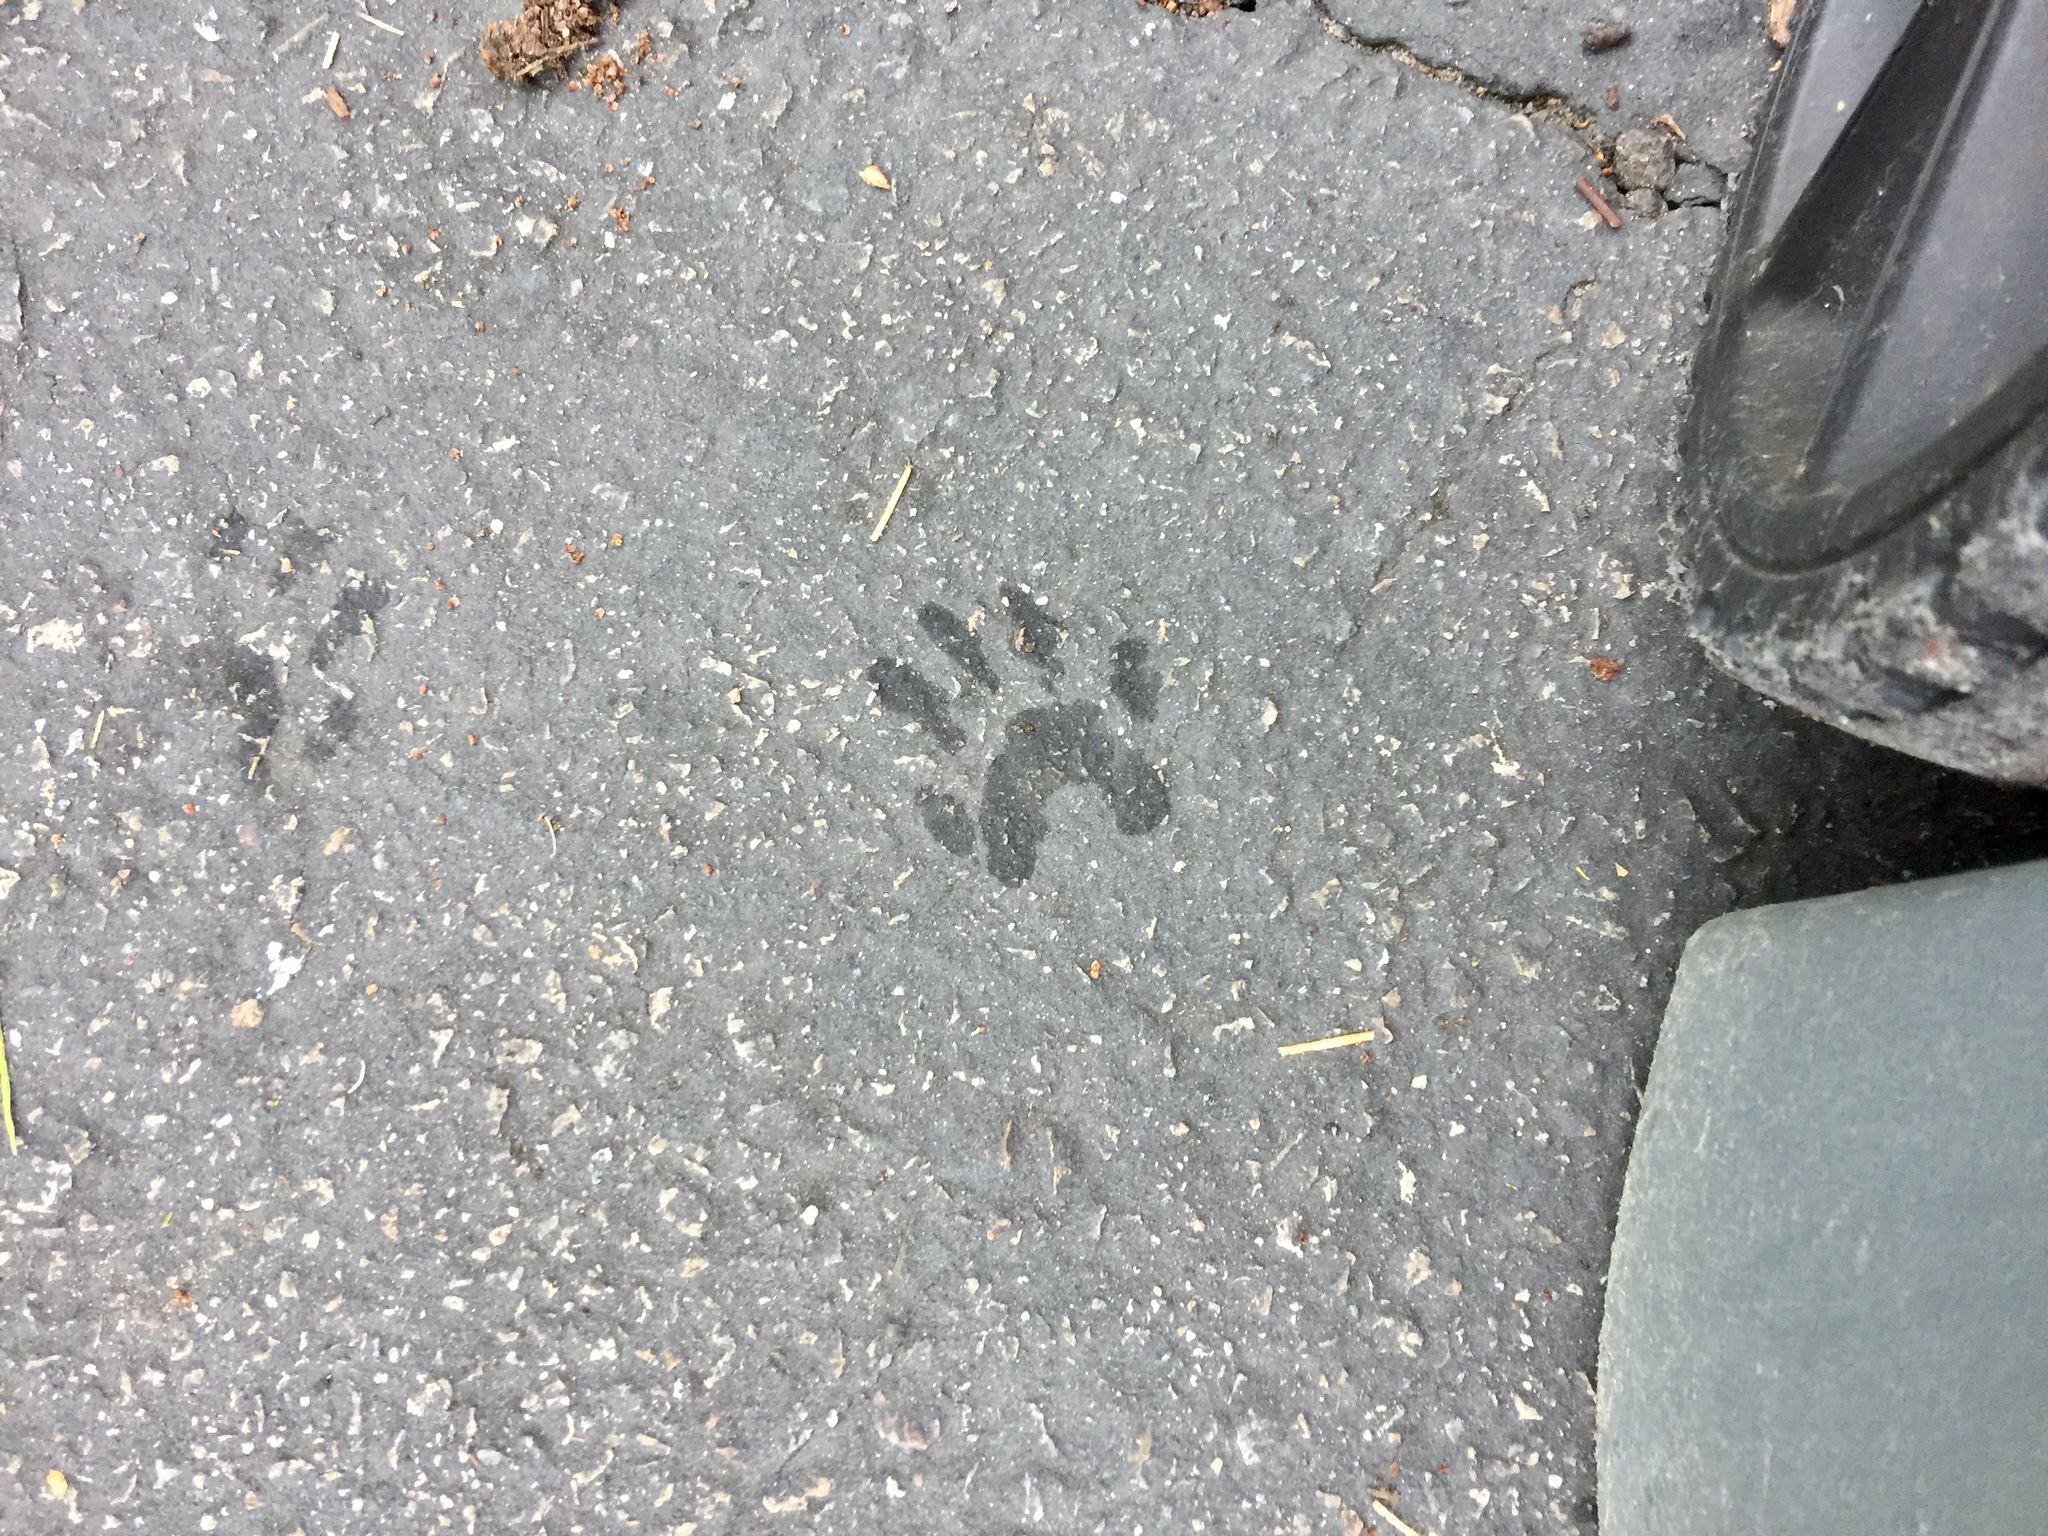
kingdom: Animalia
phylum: Chordata
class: Mammalia
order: Carnivora
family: Procyonidae
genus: Procyon
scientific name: Procyon lotor
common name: Raccoon
